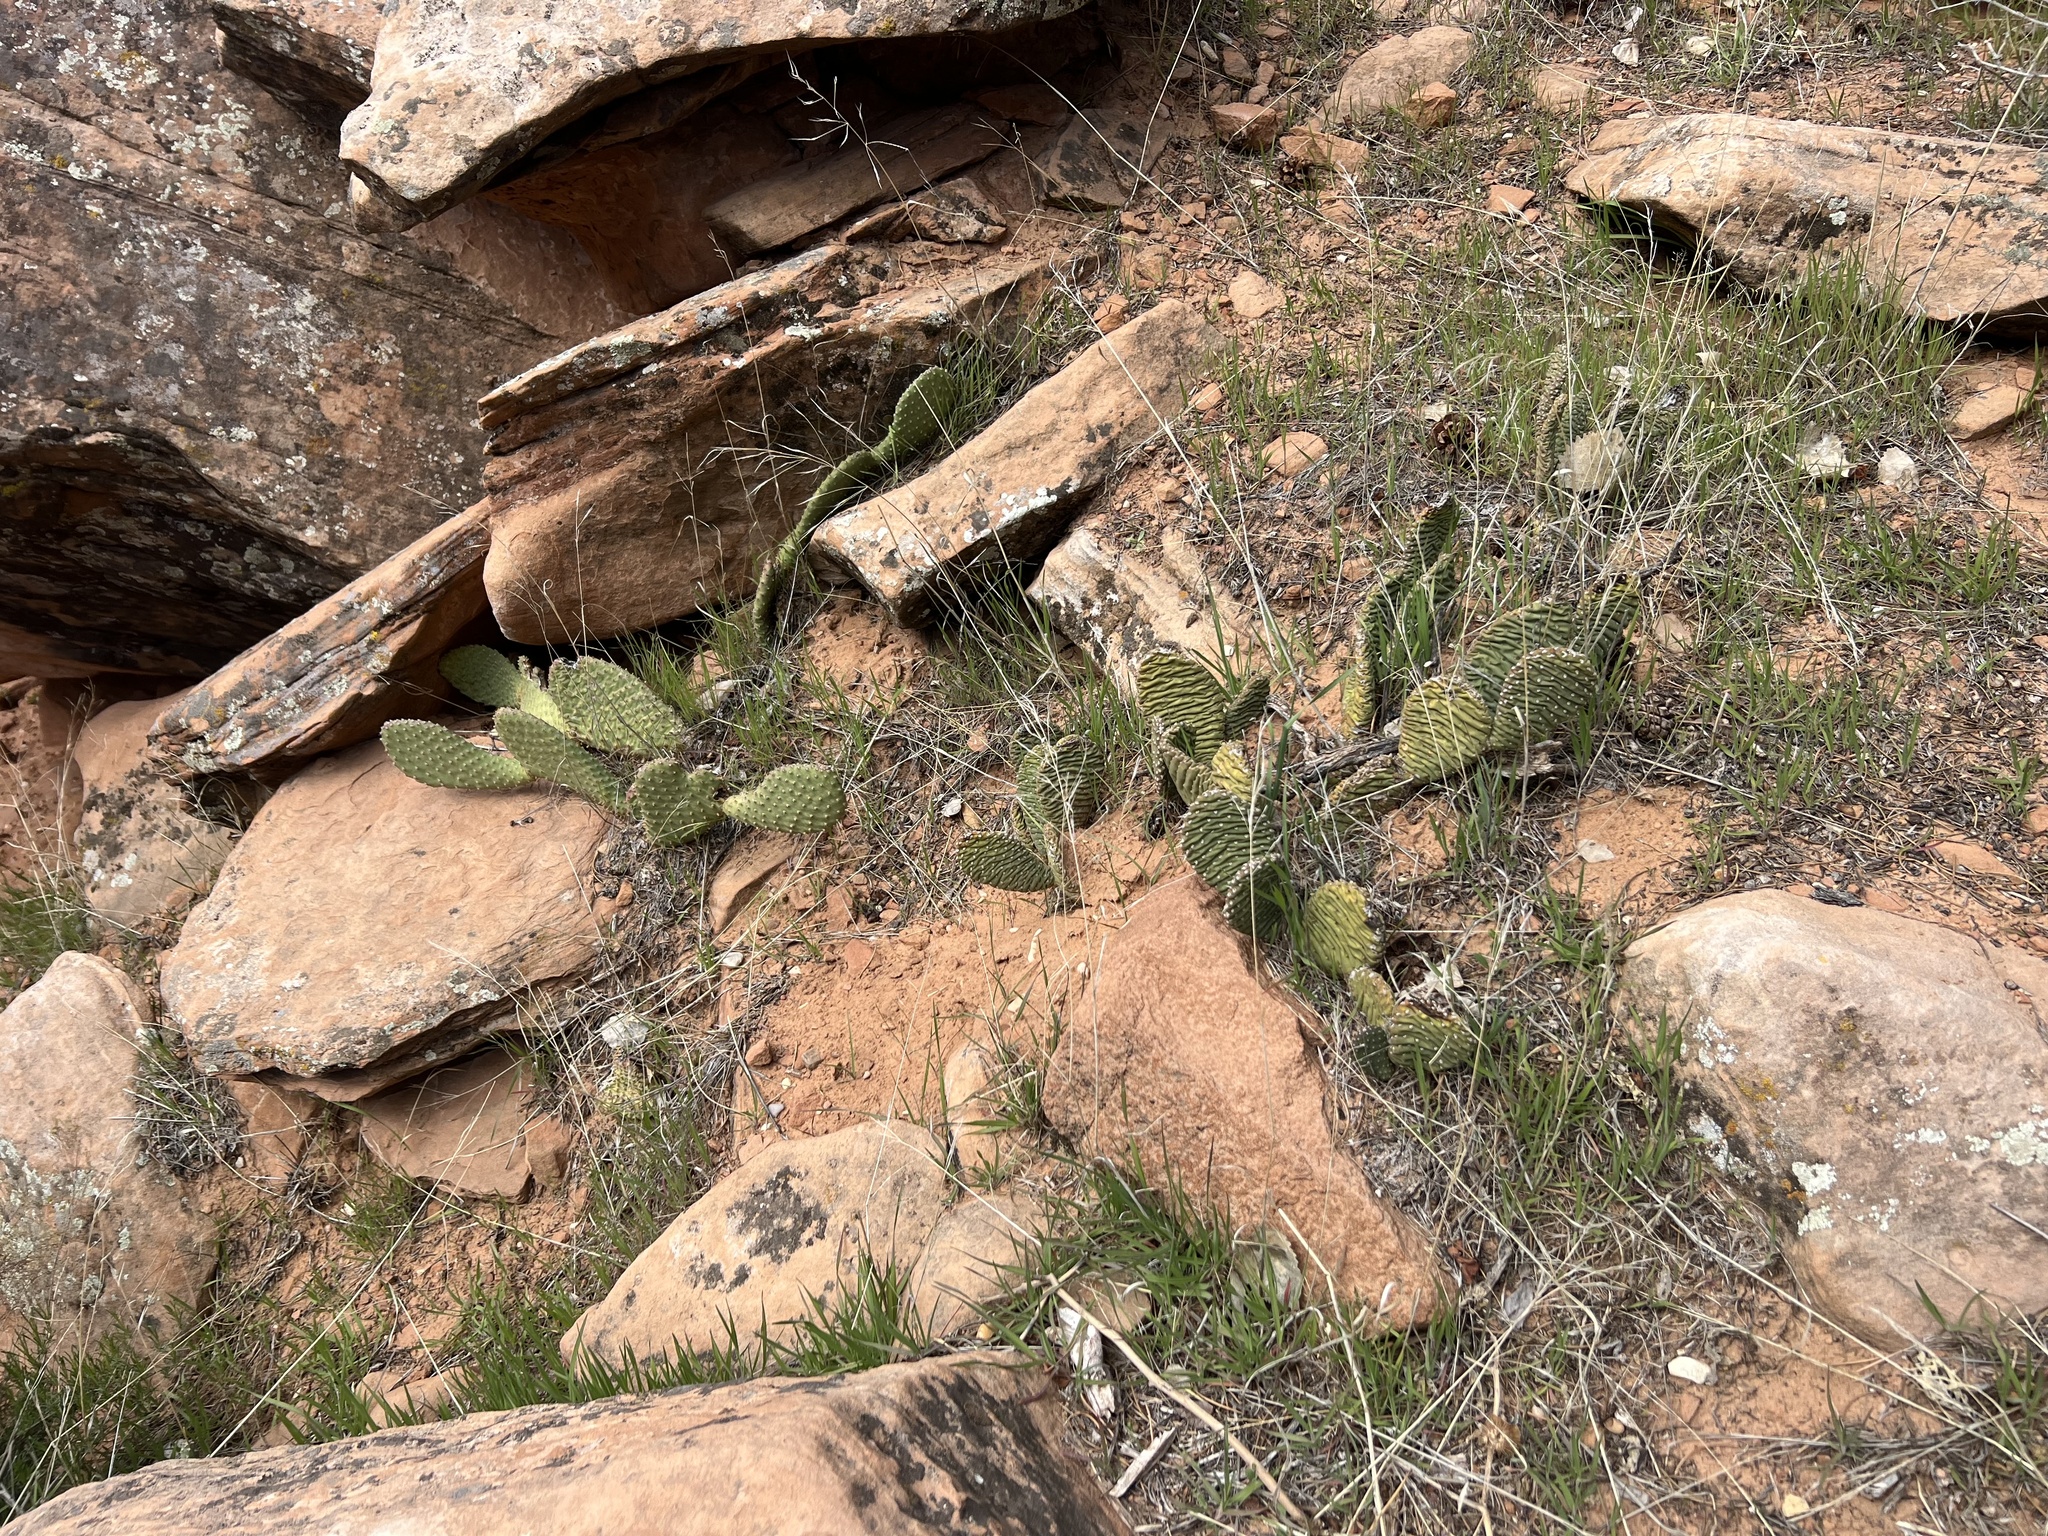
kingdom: Plantae
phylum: Tracheophyta
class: Magnoliopsida
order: Caryophyllales
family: Cactaceae
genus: Opuntia
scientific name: Opuntia aurea
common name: Golden prickly-pear
